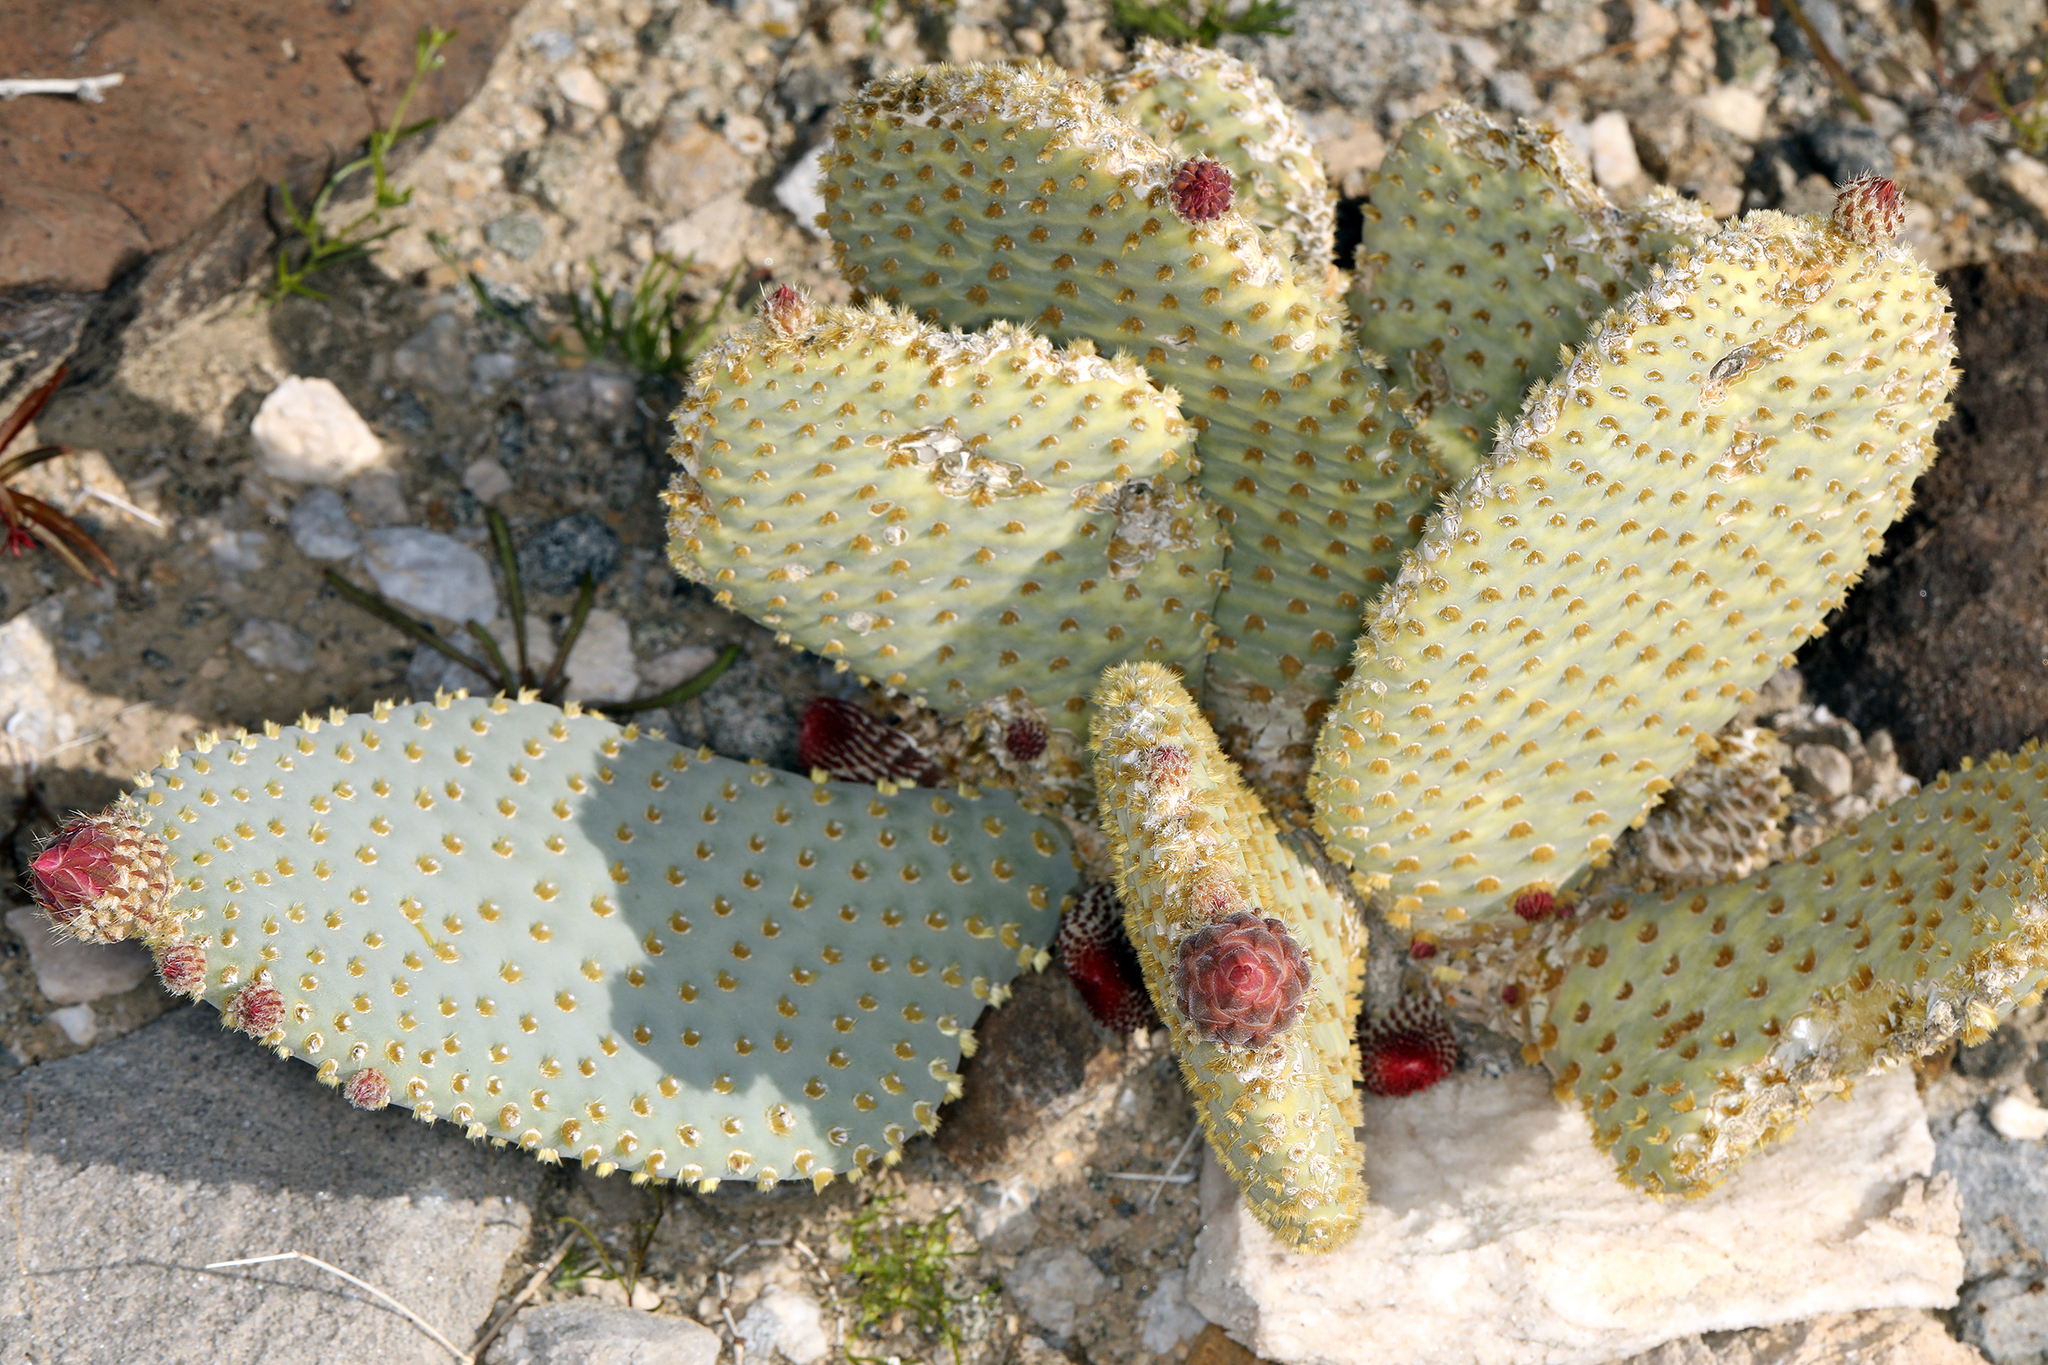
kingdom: Plantae
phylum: Tracheophyta
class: Magnoliopsida
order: Caryophyllales
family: Cactaceae
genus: Opuntia
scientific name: Opuntia basilaris
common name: Beavertail prickly-pear
